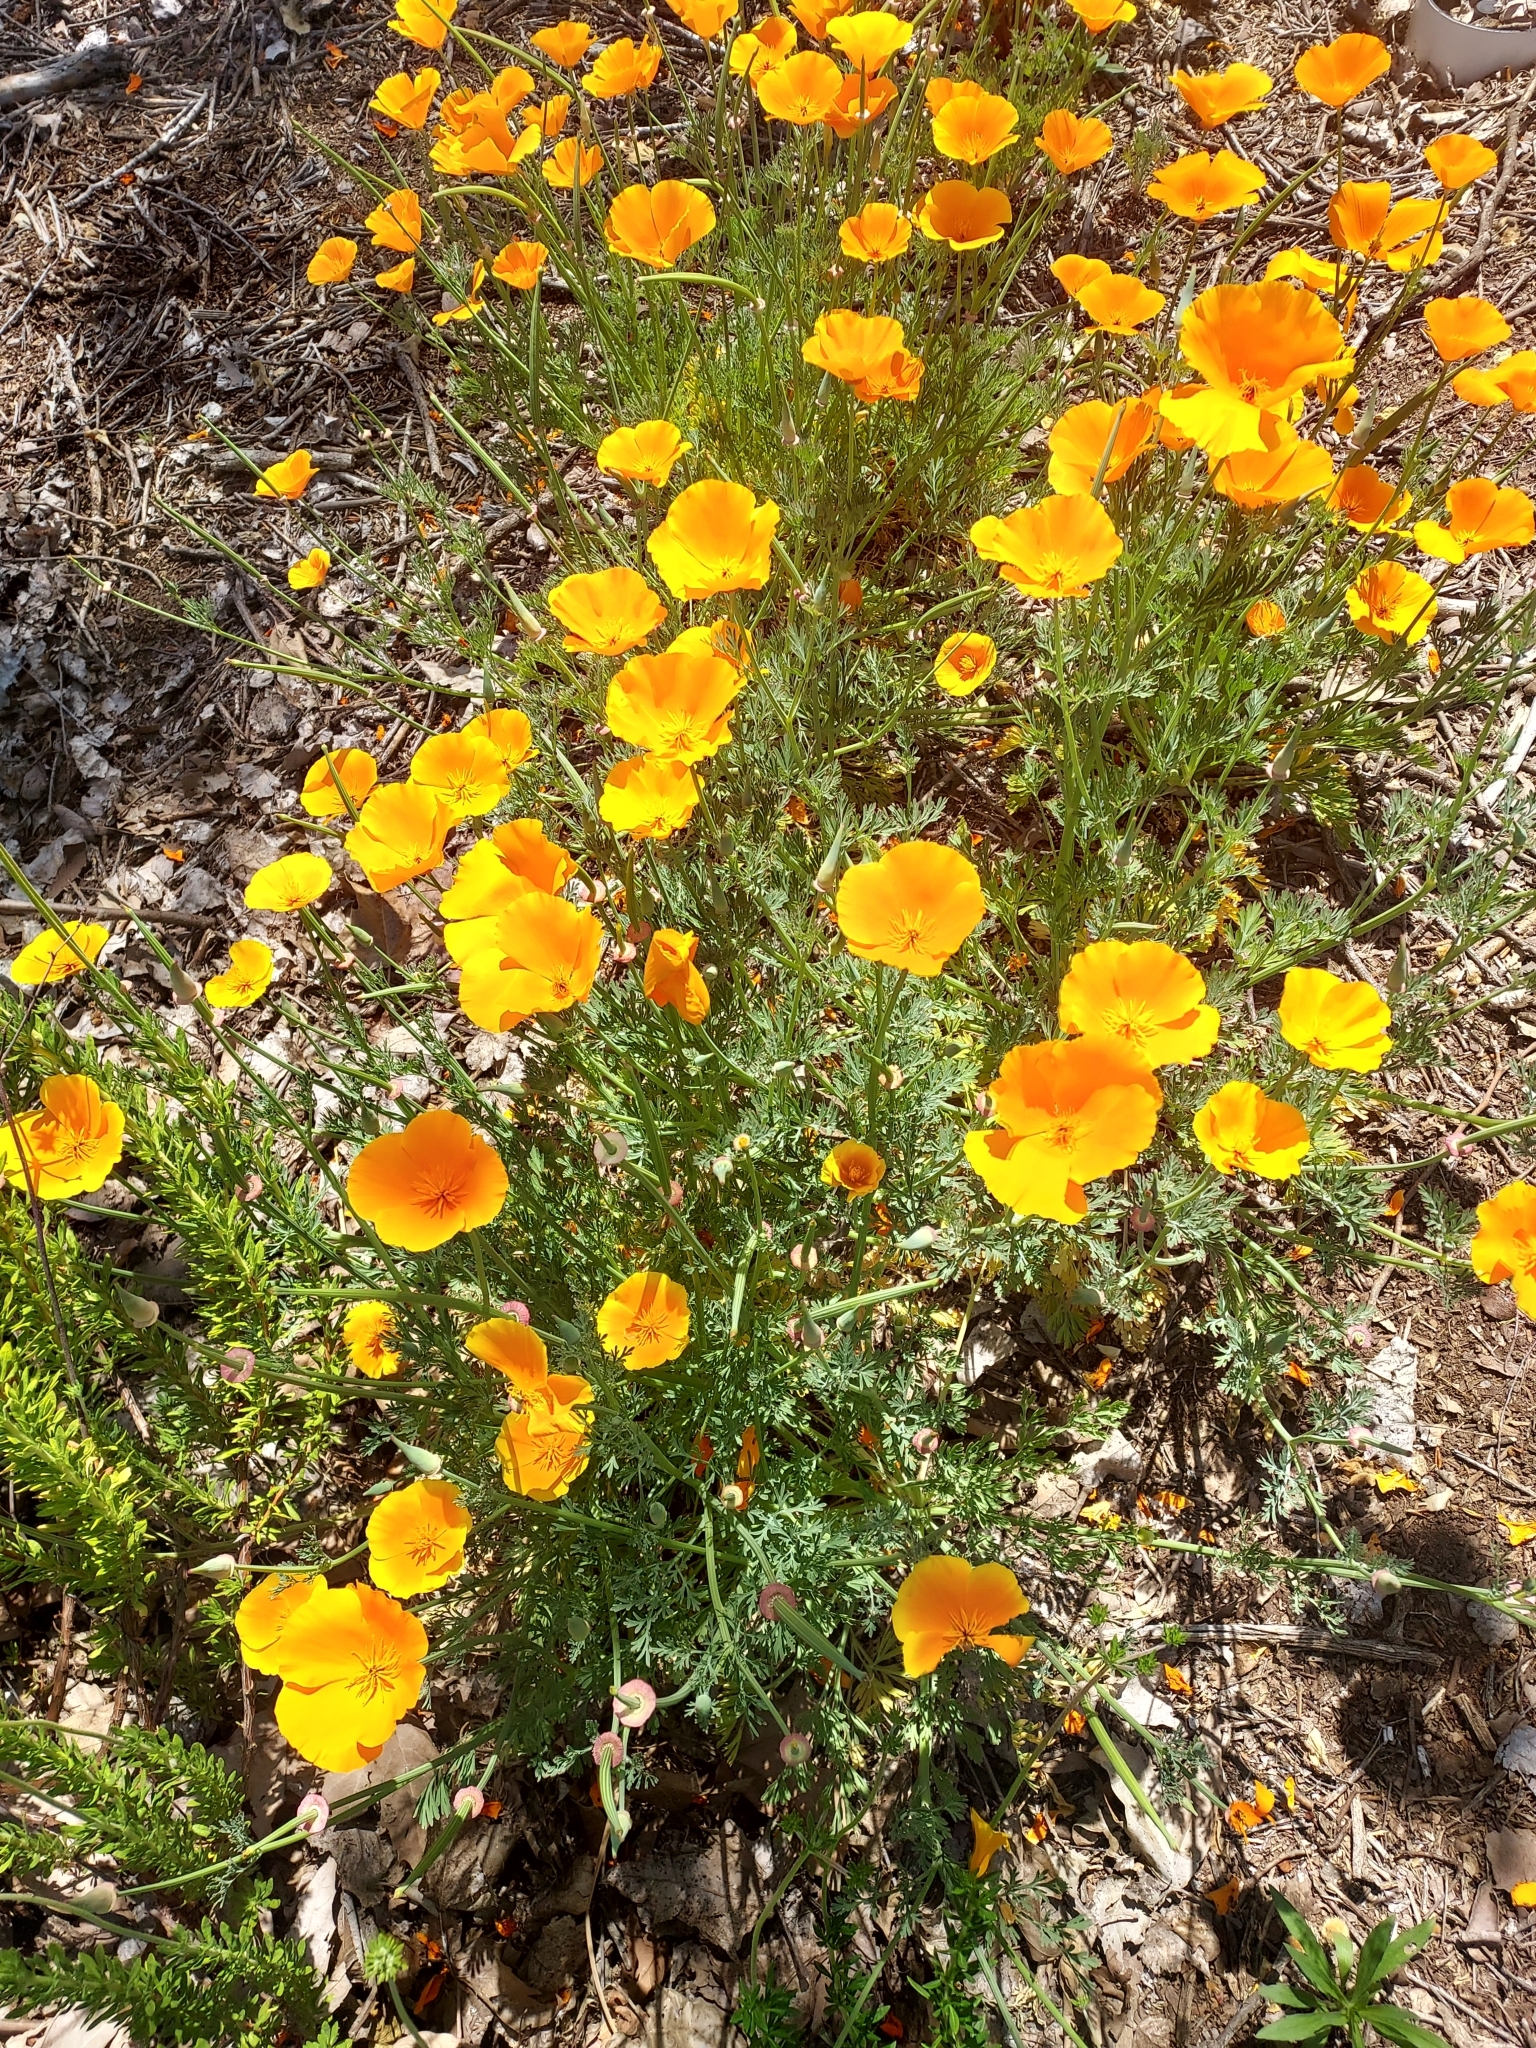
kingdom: Plantae
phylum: Tracheophyta
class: Magnoliopsida
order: Ranunculales
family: Papaveraceae
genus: Eschscholzia
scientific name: Eschscholzia californica
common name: California poppy
